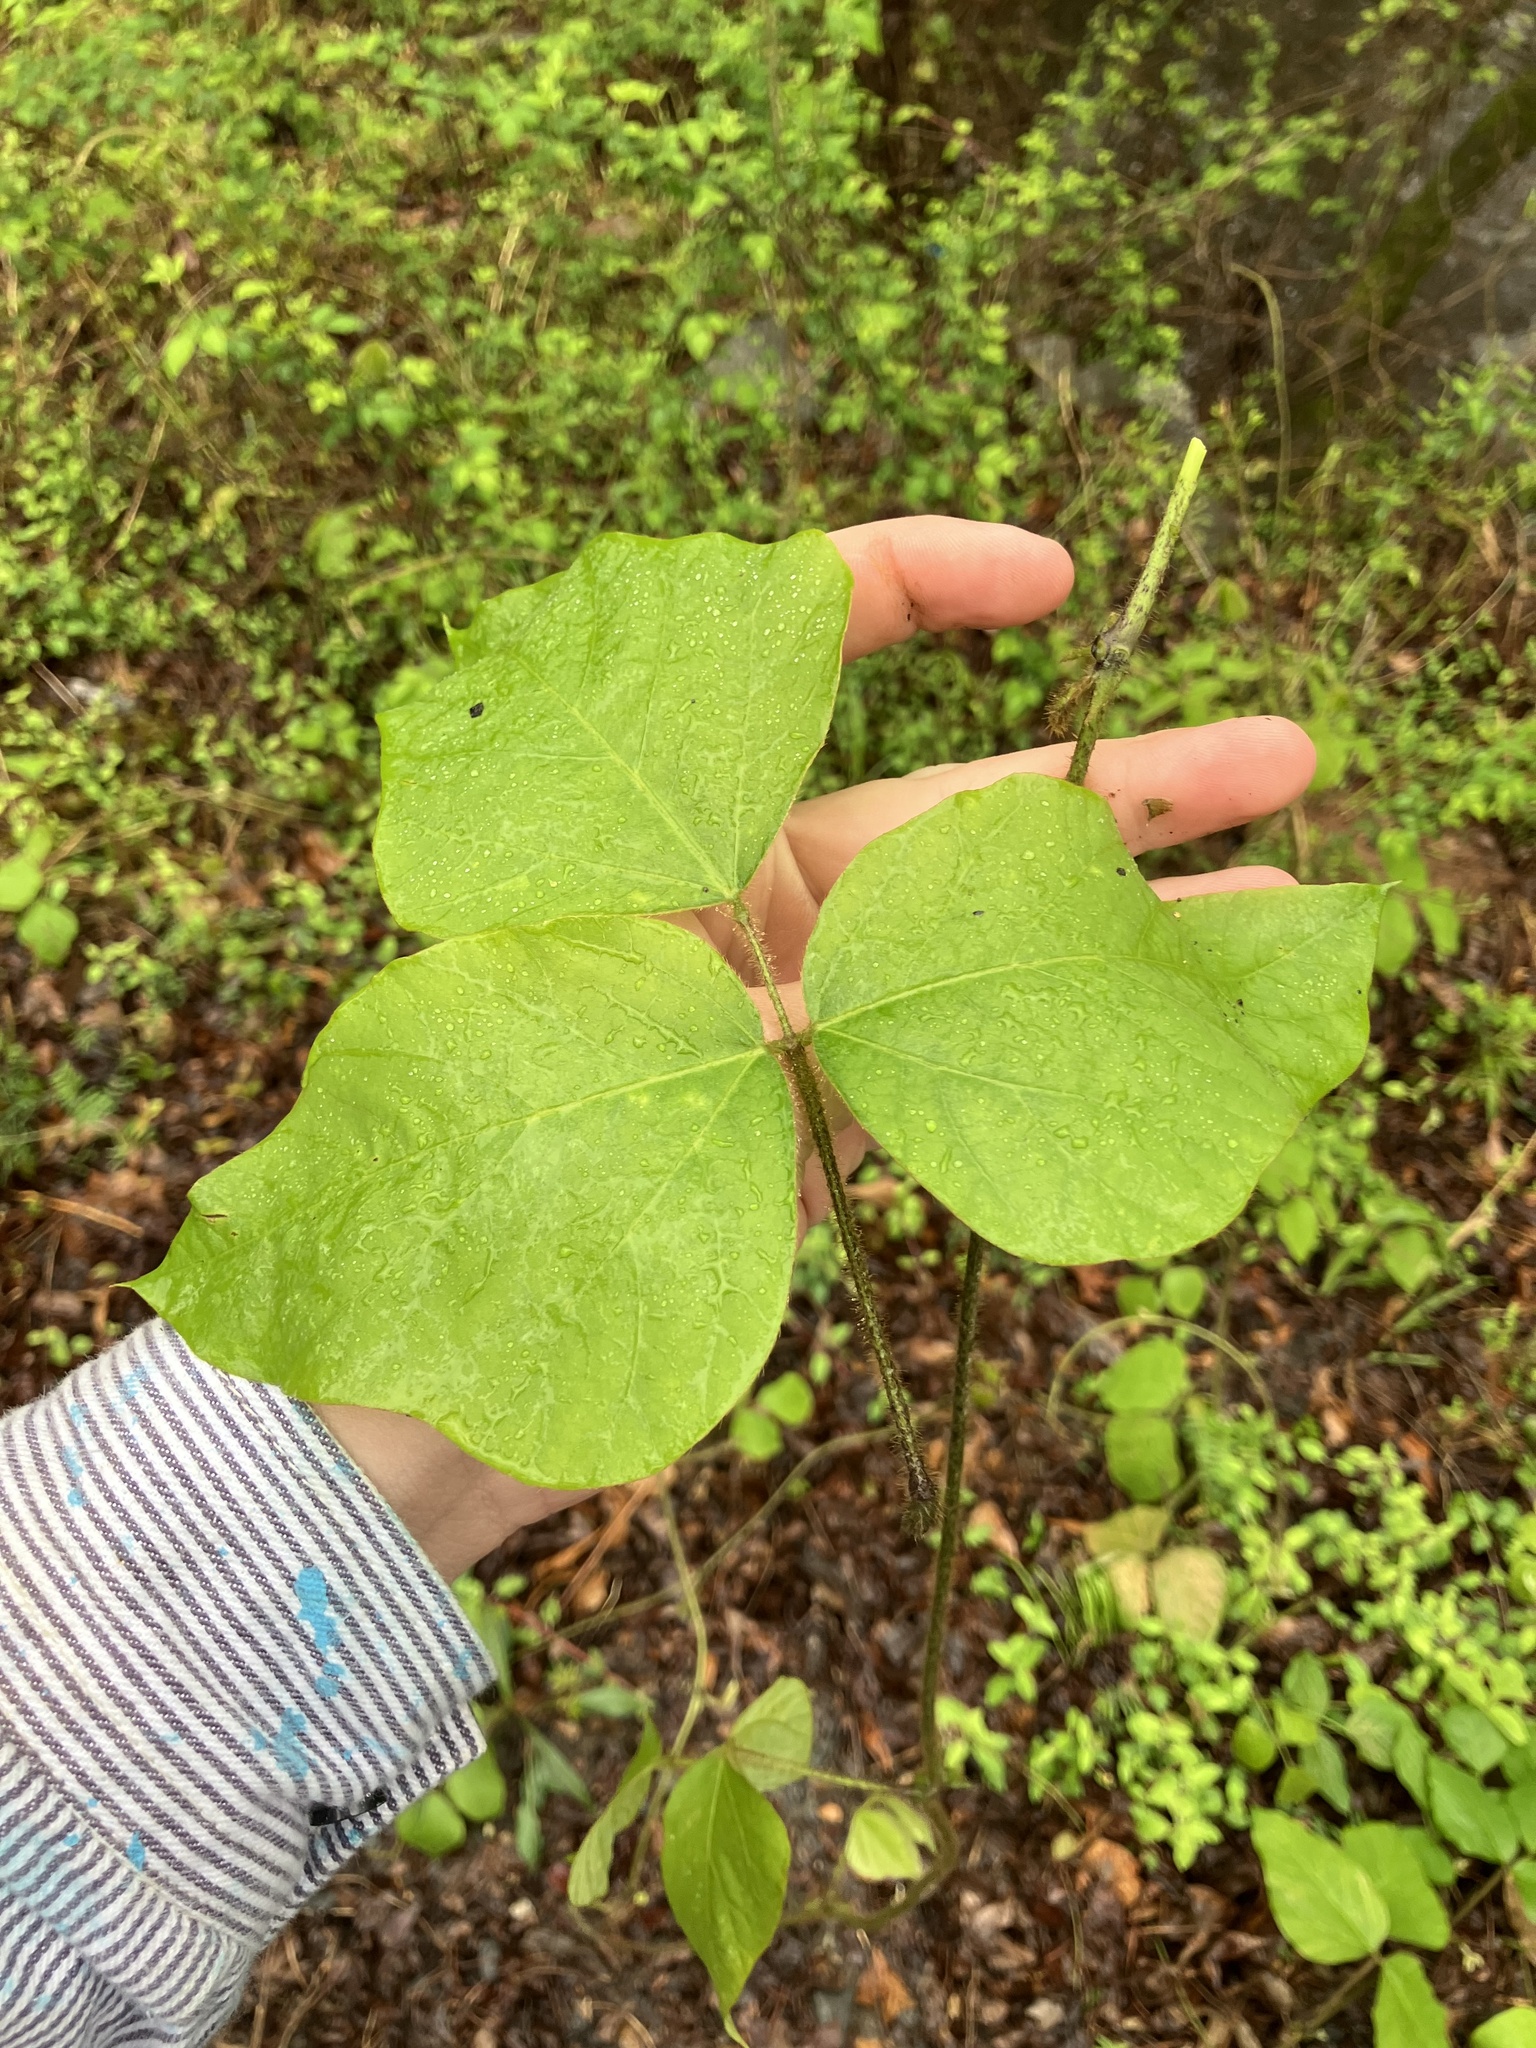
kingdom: Plantae
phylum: Tracheophyta
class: Magnoliopsida
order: Fabales
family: Fabaceae
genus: Pueraria
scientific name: Pueraria montana
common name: Kudzu
